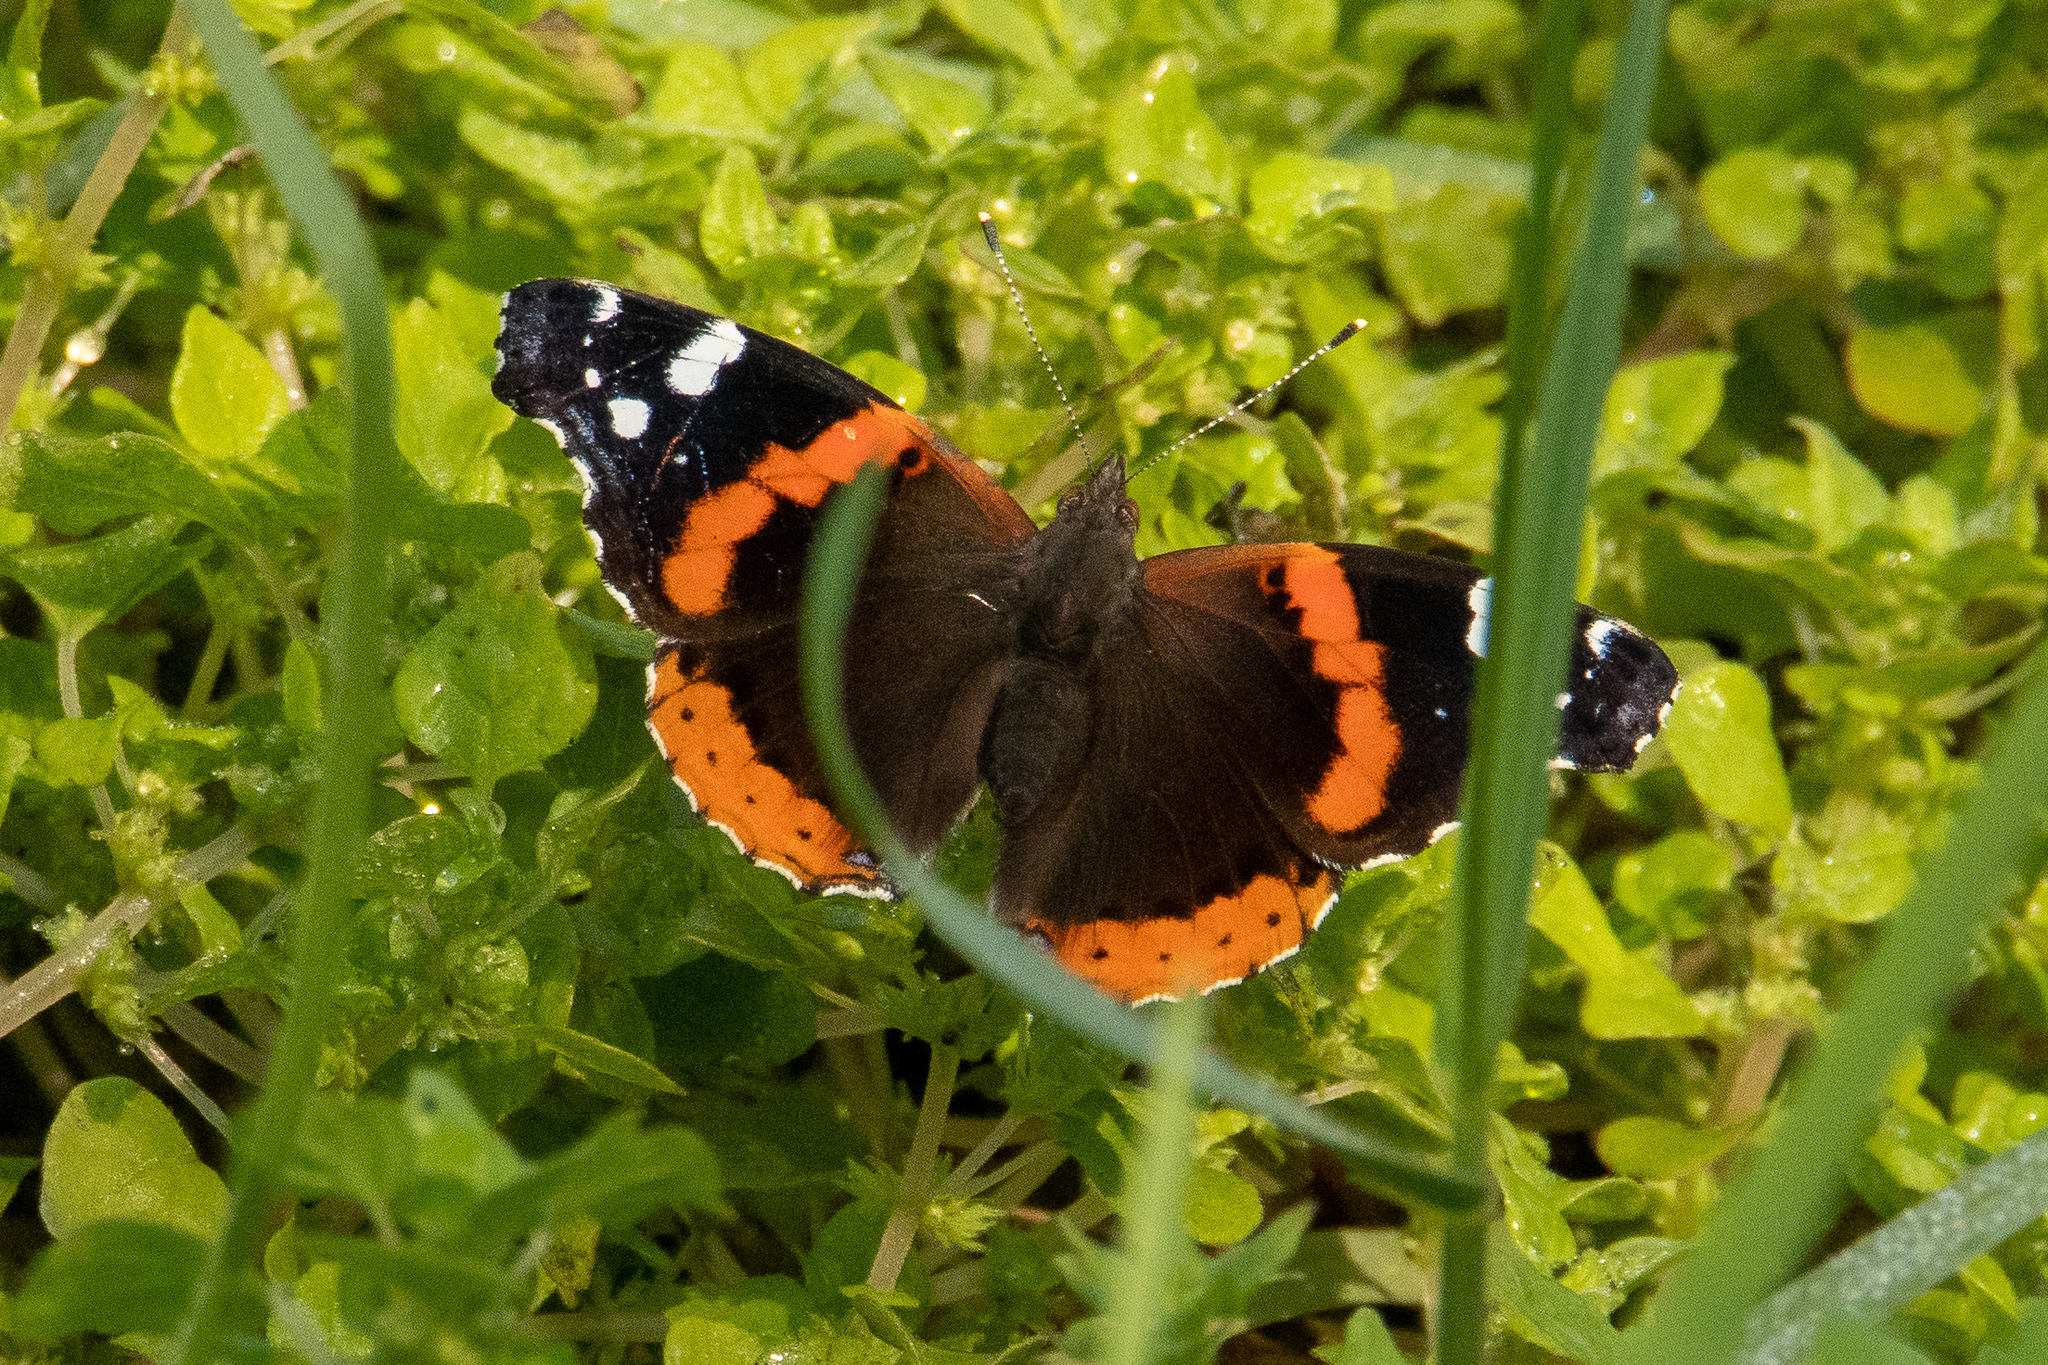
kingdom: Animalia
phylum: Arthropoda
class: Insecta
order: Lepidoptera
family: Nymphalidae
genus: Vanessa
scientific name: Vanessa atalanta
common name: Red admiral
